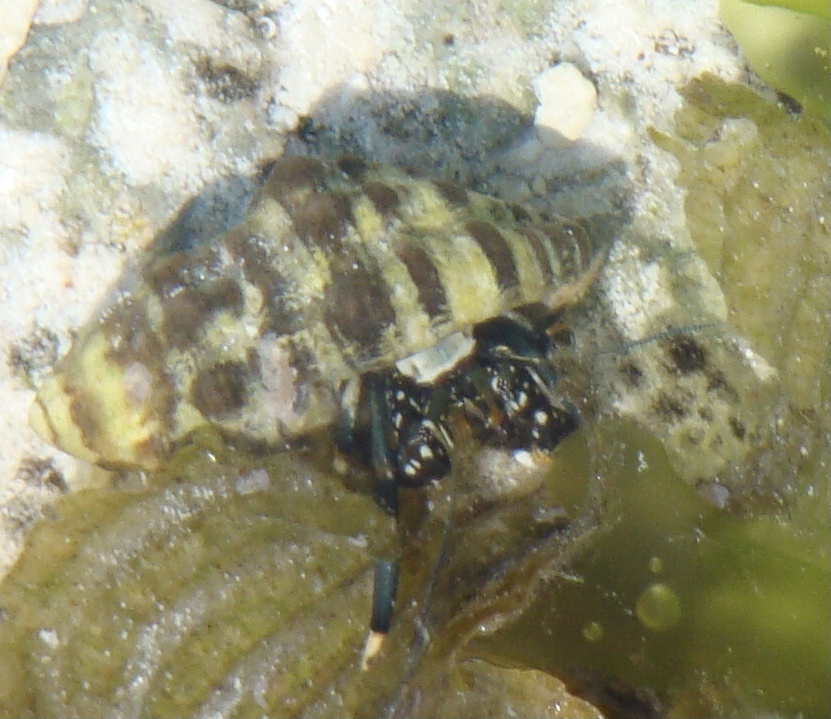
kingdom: Animalia
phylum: Arthropoda
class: Malacostraca
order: Decapoda
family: Diogenidae
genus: Clibanarius
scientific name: Clibanarius virescens
